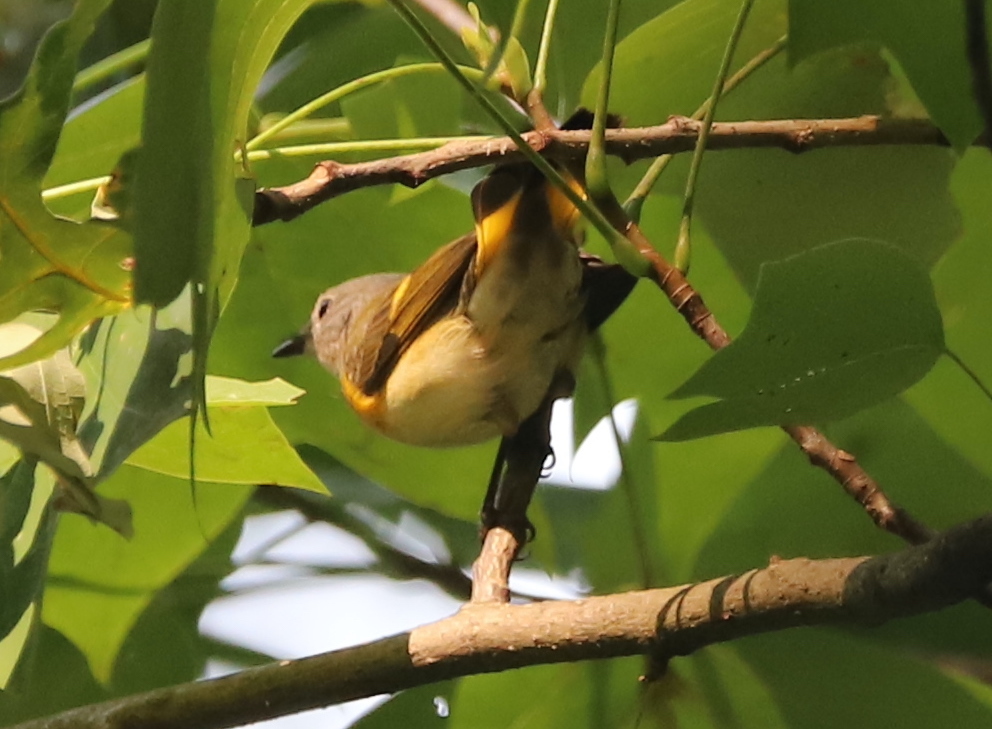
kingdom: Animalia
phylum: Chordata
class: Aves
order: Passeriformes
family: Parulidae
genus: Setophaga
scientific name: Setophaga ruticilla
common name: American redstart
